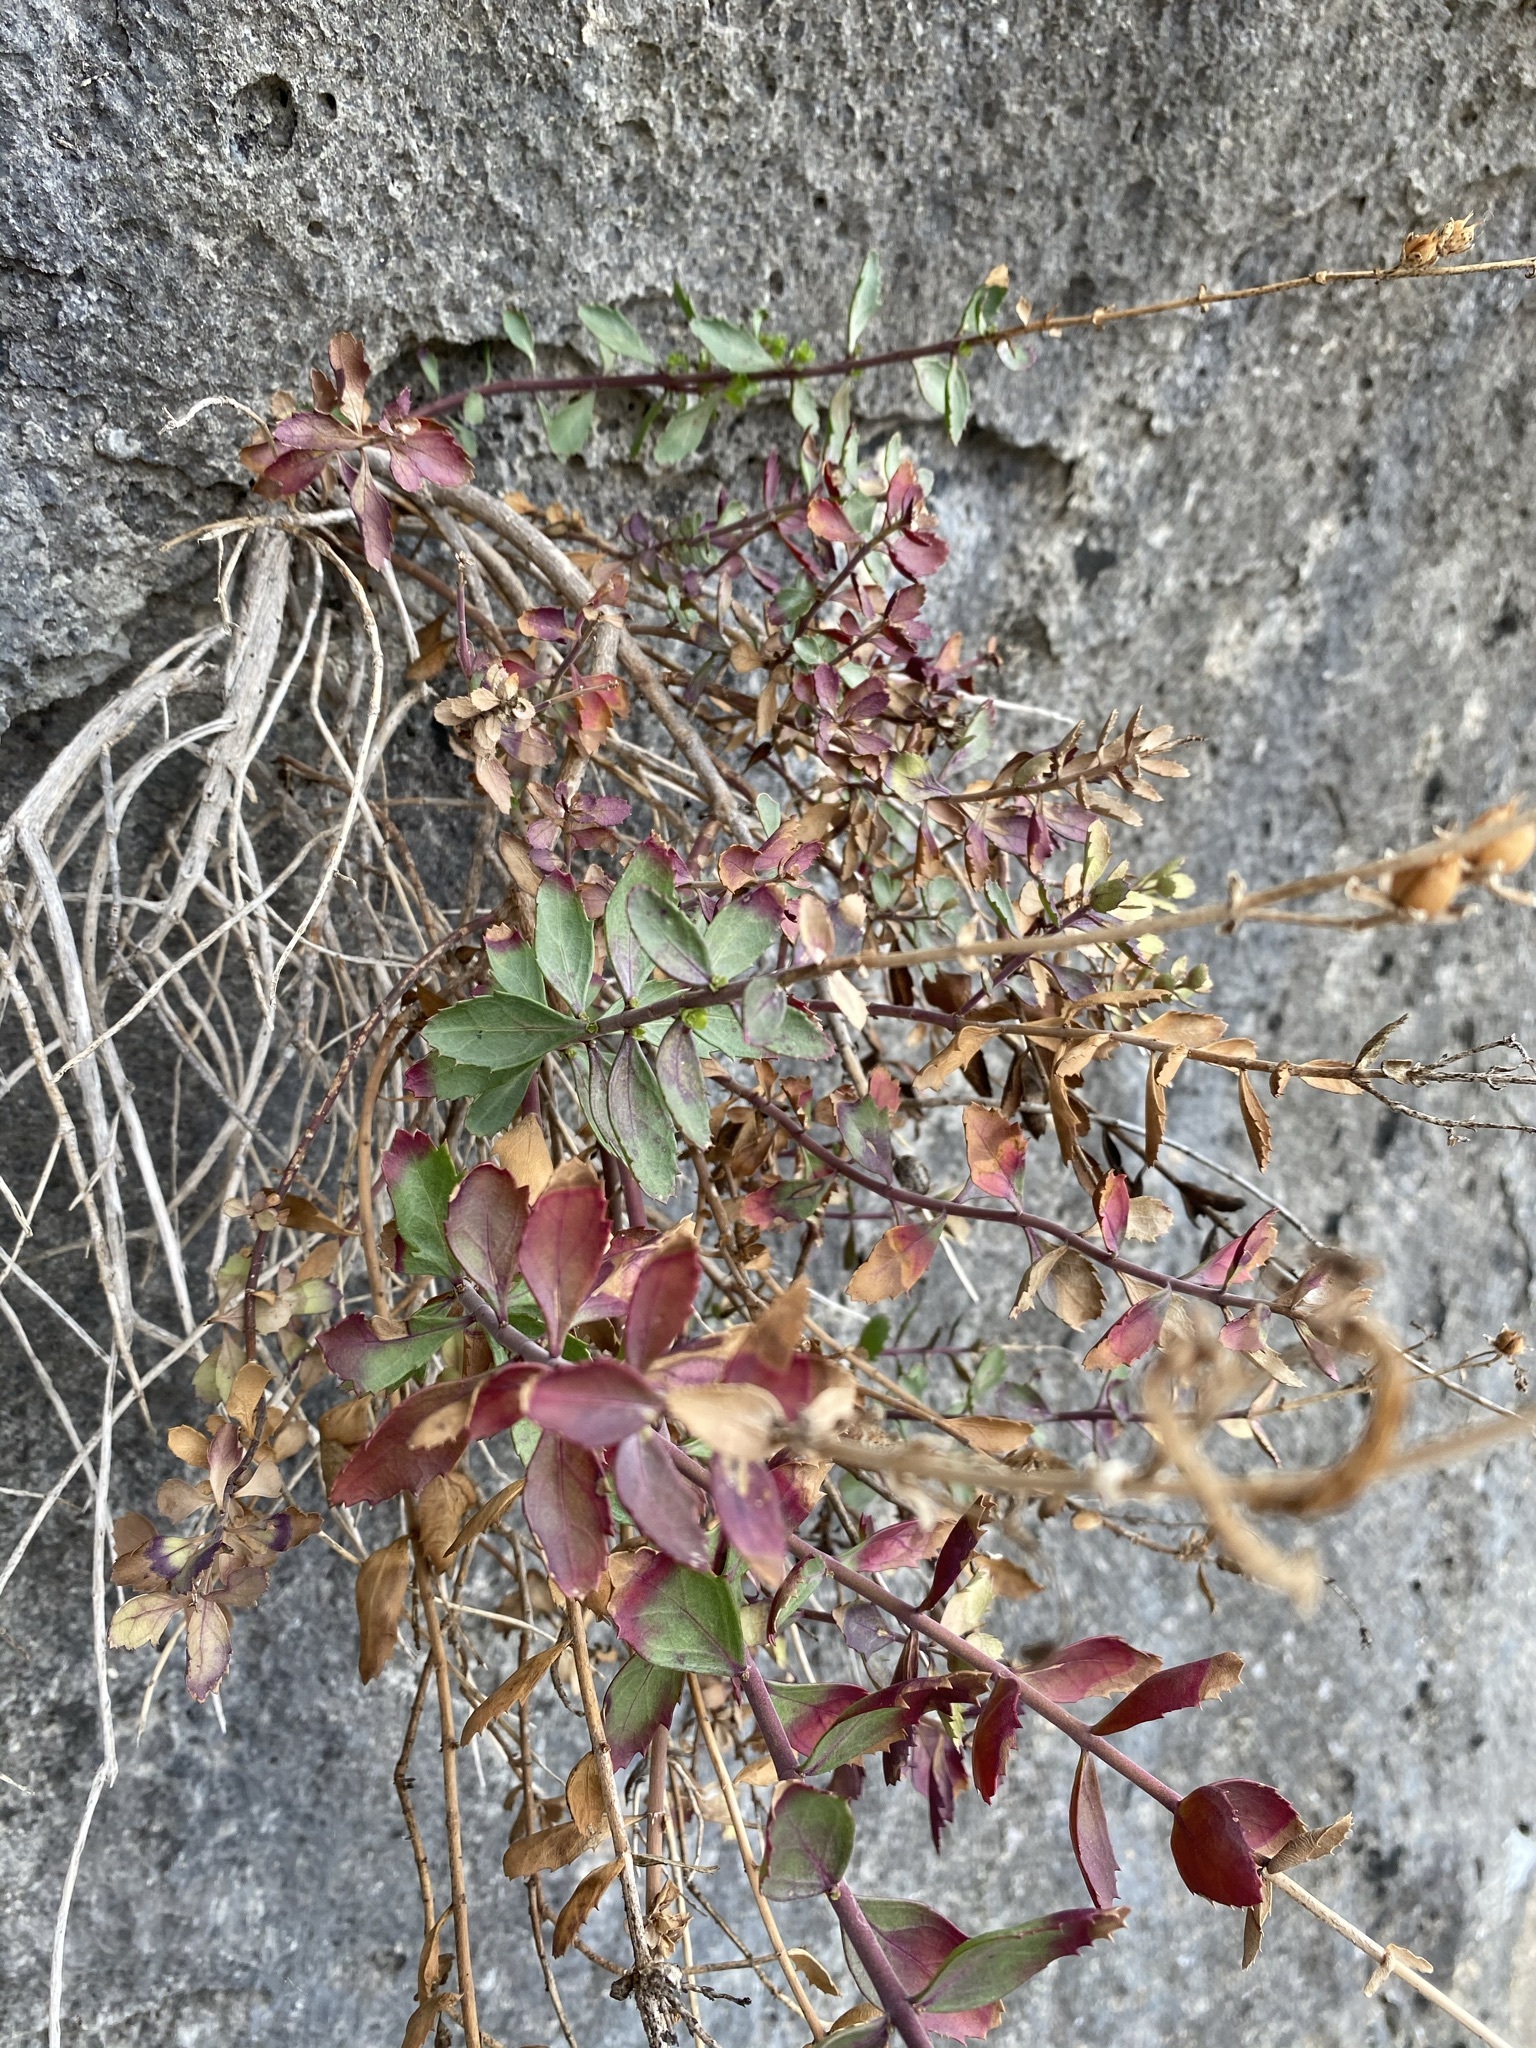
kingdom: Plantae
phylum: Tracheophyta
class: Magnoliopsida
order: Lamiales
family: Plantaginaceae
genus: Penstemon
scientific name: Penstemon baccharifolius
